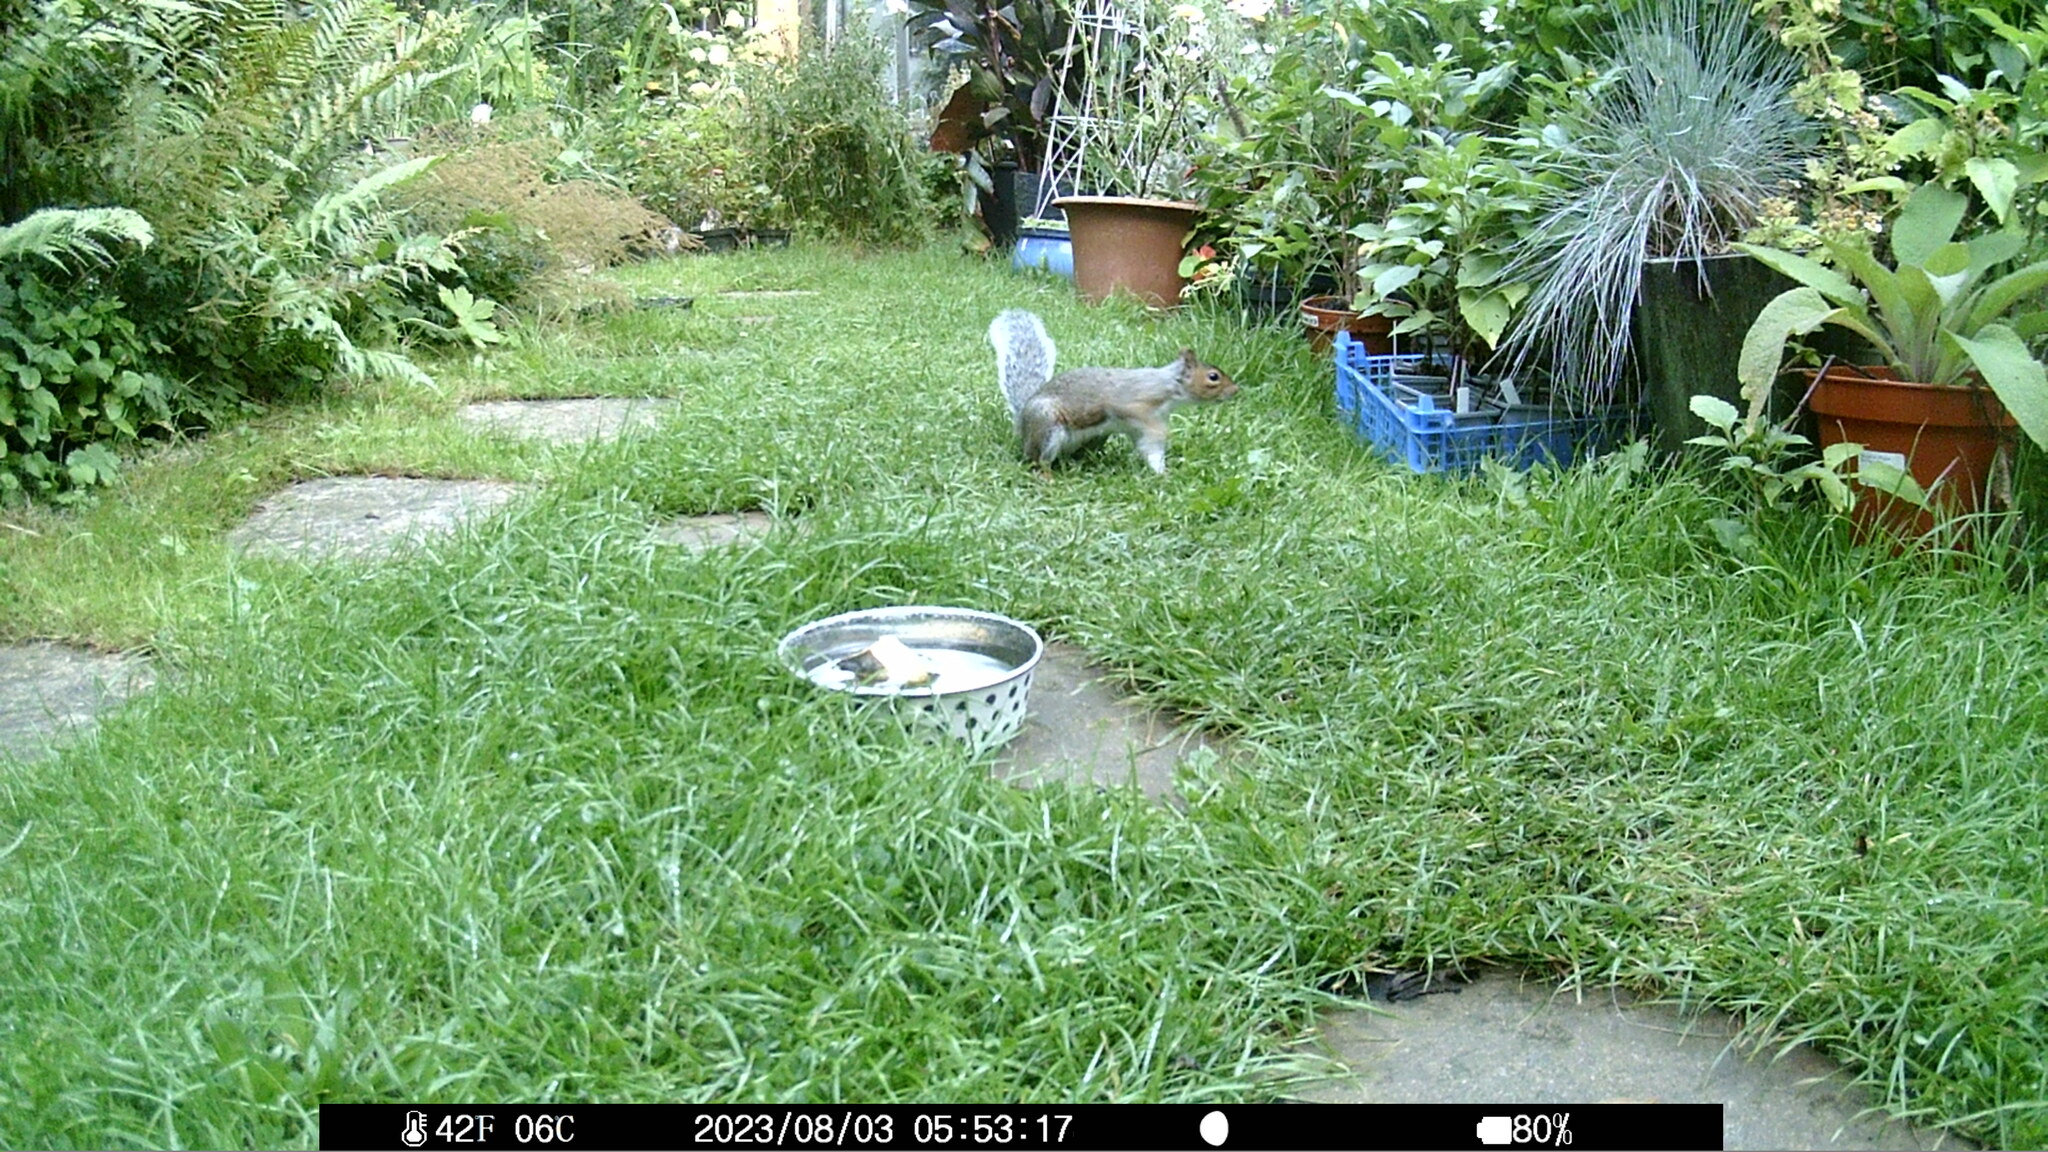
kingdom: Animalia
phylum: Chordata
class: Mammalia
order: Rodentia
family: Sciuridae
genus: Sciurus
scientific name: Sciurus carolinensis
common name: Eastern gray squirrel
